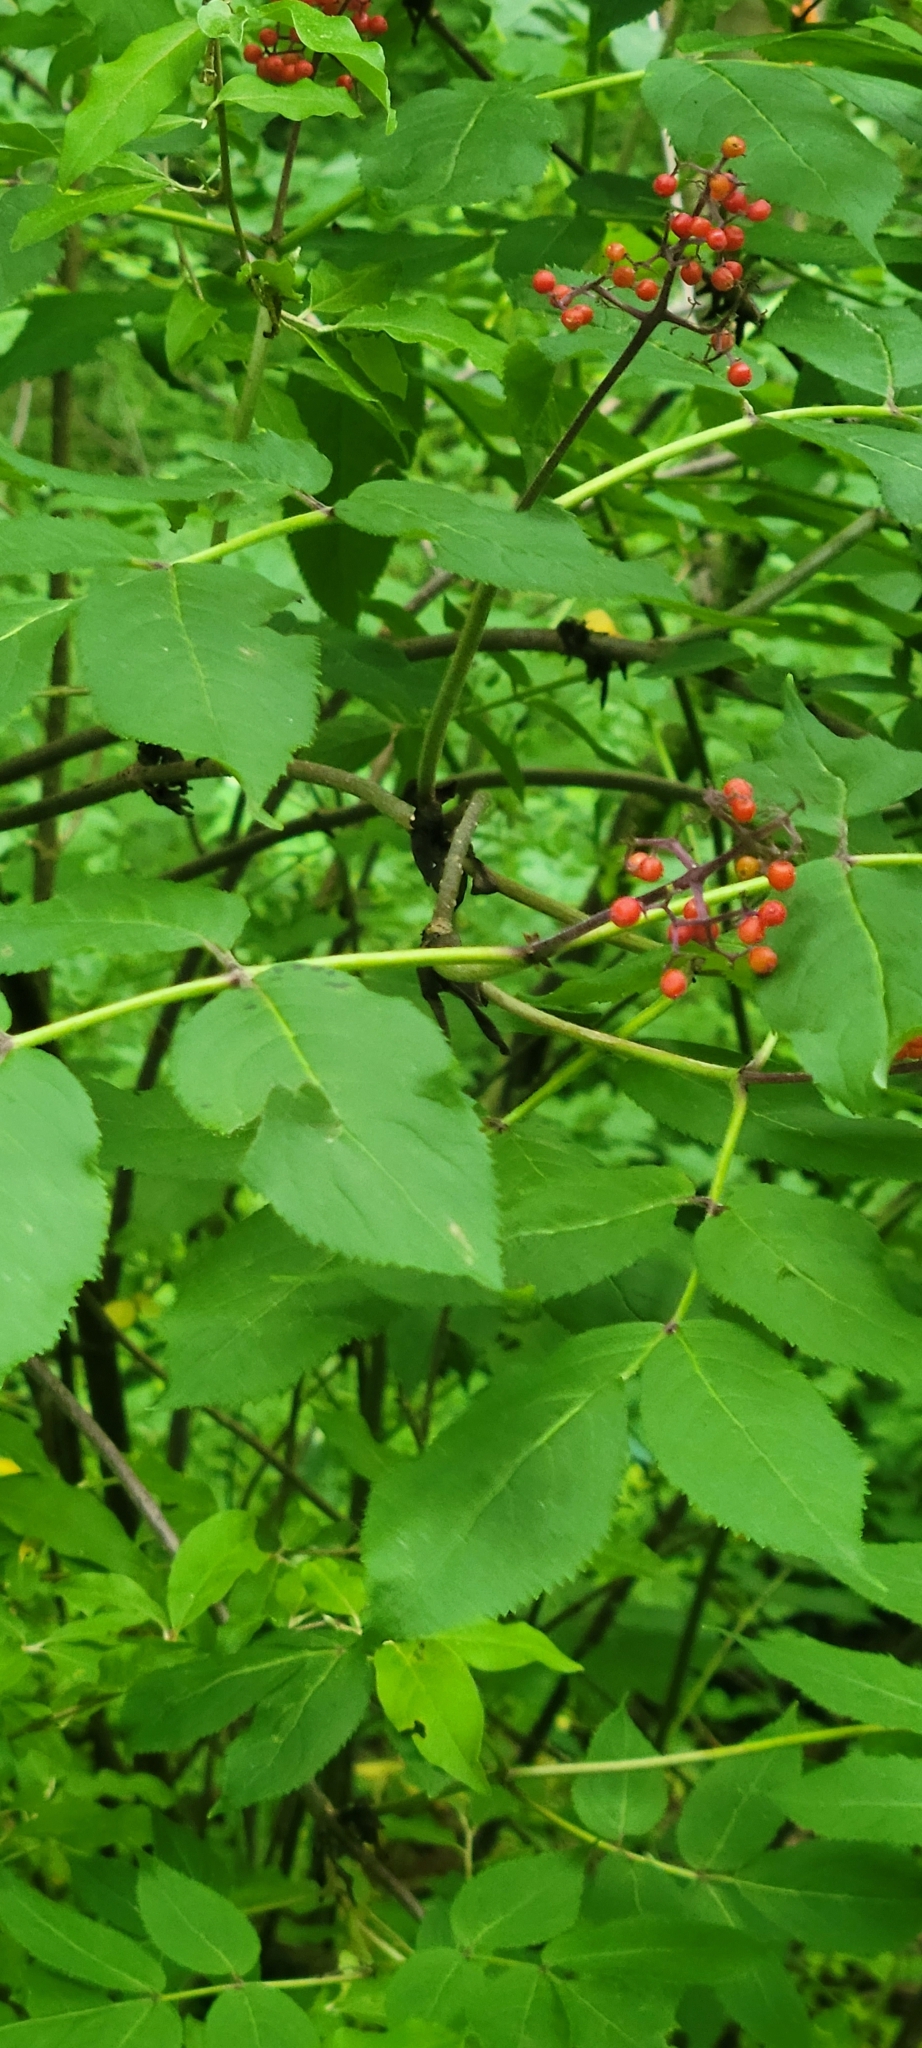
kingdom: Plantae
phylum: Tracheophyta
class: Magnoliopsida
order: Dipsacales
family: Viburnaceae
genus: Sambucus
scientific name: Sambucus racemosa
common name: Red-berried elder
